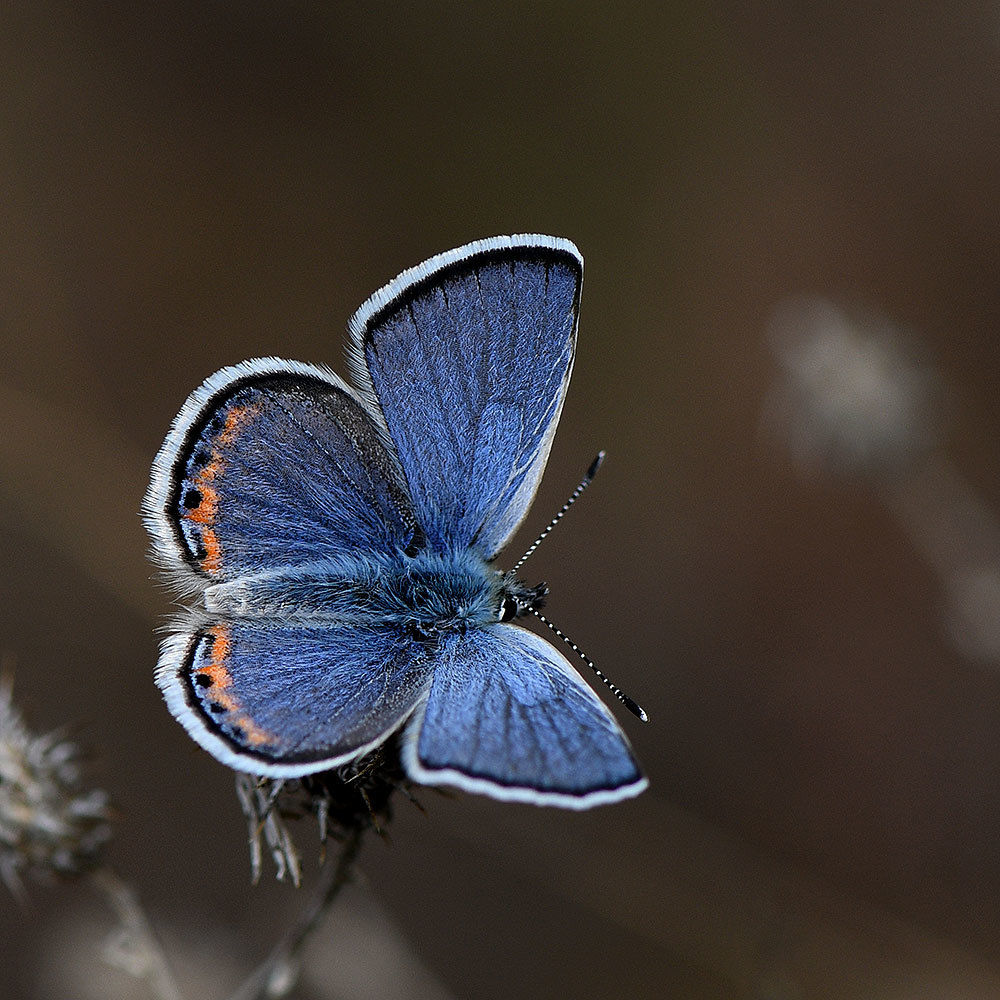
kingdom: Animalia
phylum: Arthropoda
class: Insecta
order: Lepidoptera
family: Lycaenidae
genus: Icaricia
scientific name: Icaricia acmon
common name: Acmon blue
